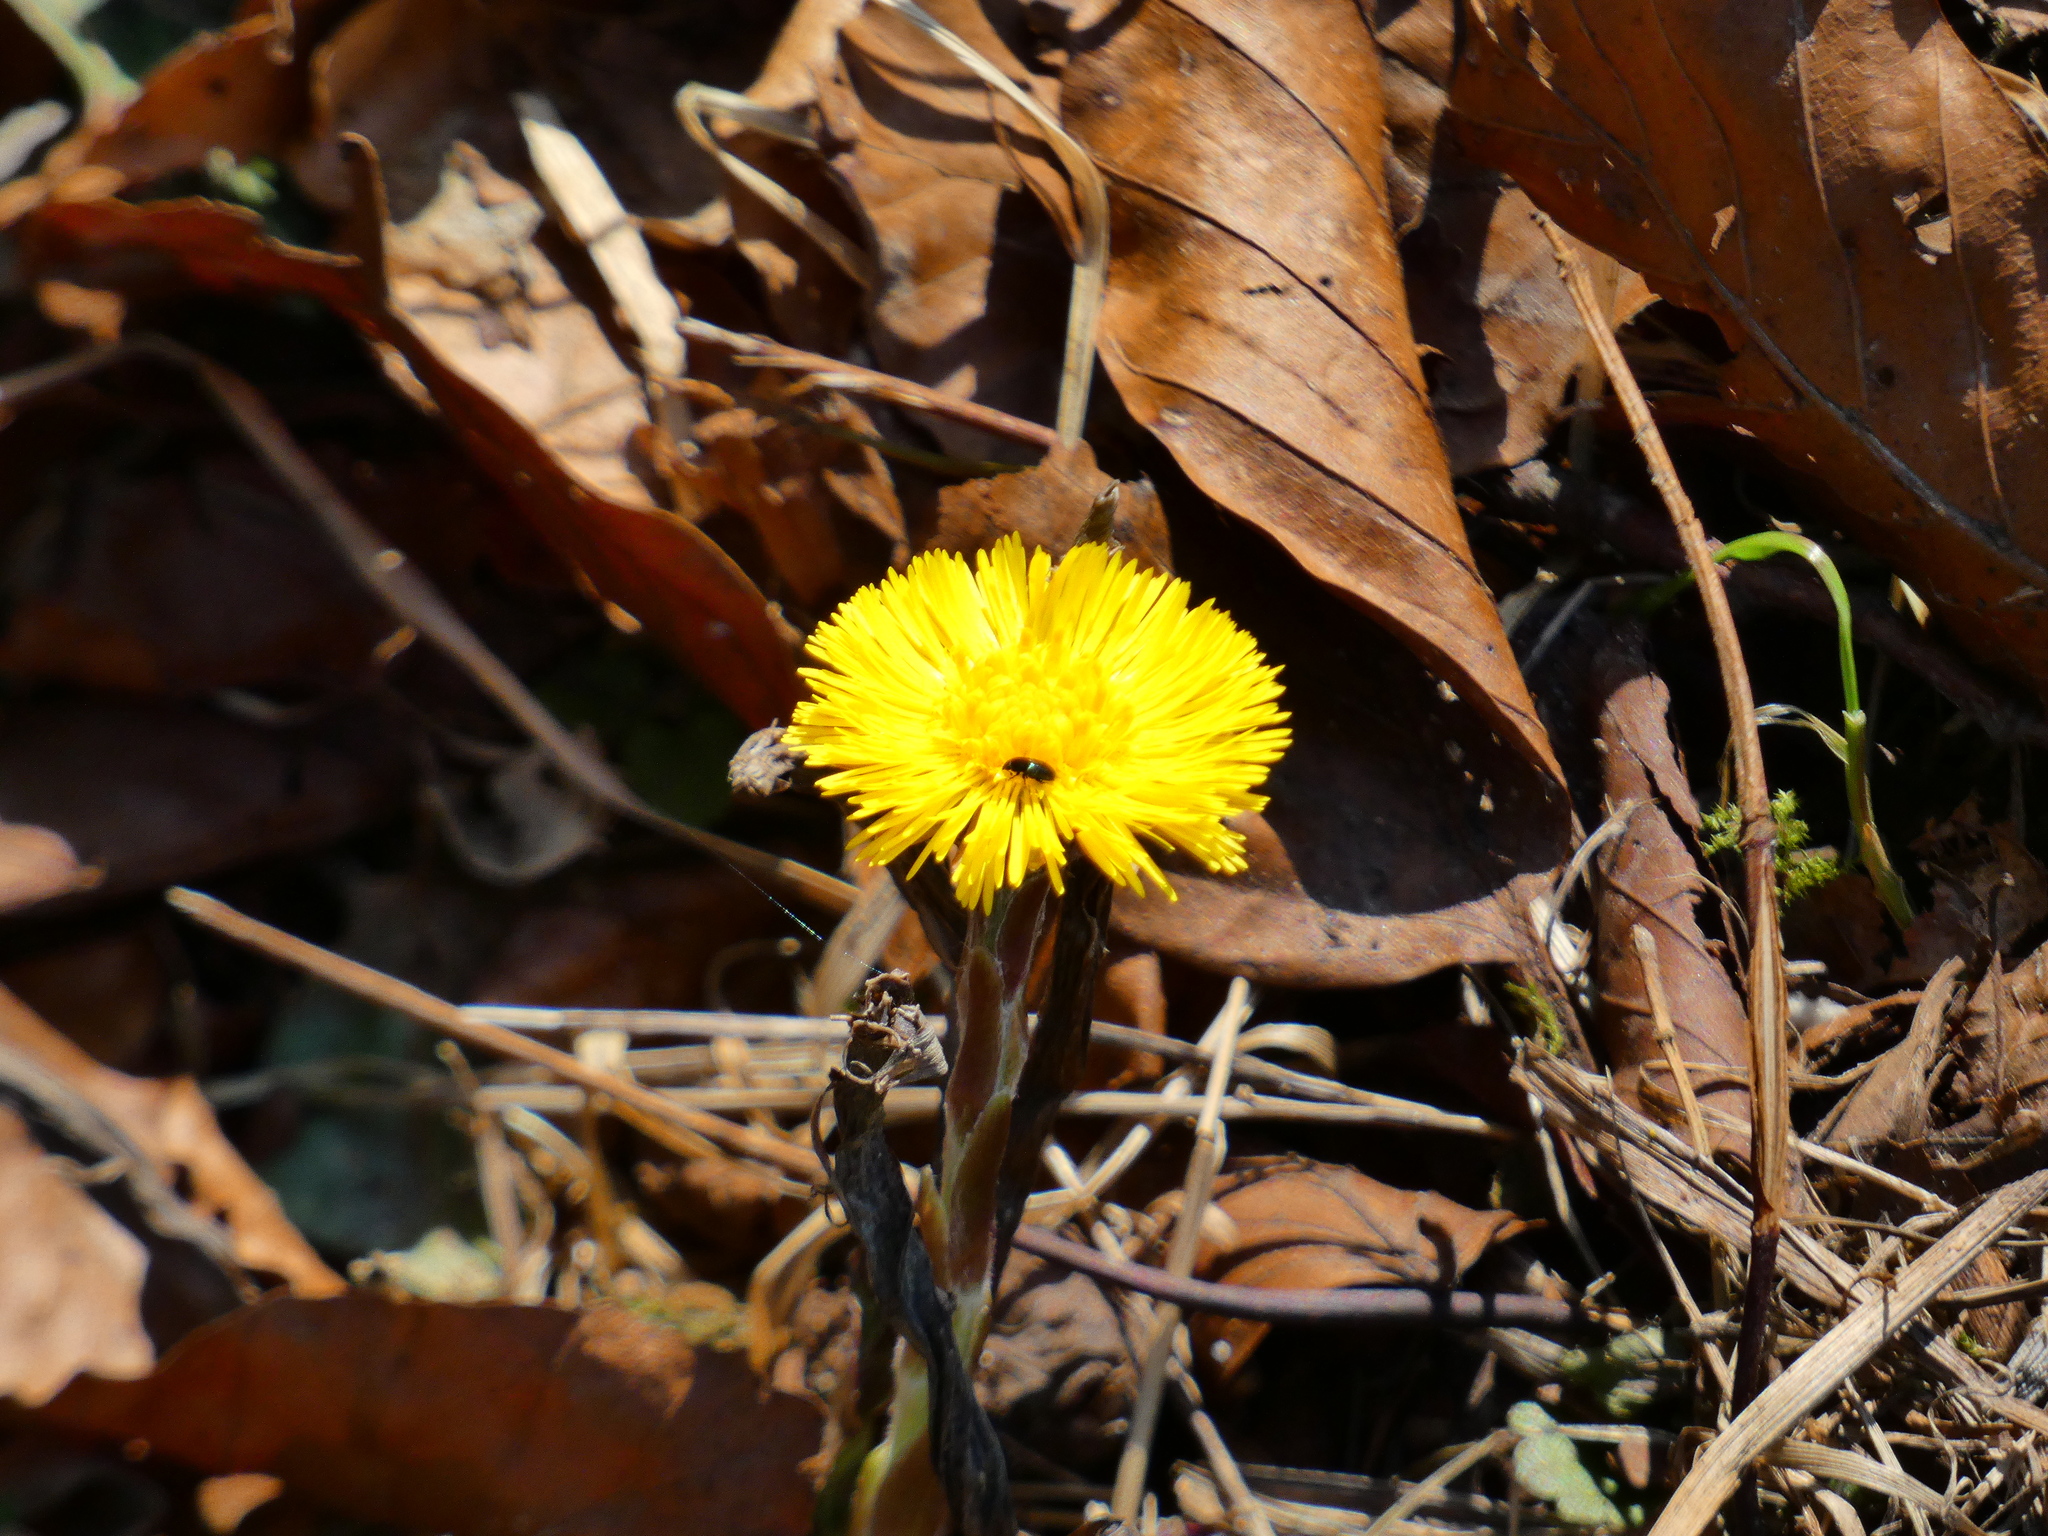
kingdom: Plantae
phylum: Tracheophyta
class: Magnoliopsida
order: Asterales
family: Asteraceae
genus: Tussilago
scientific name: Tussilago farfara
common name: Coltsfoot
